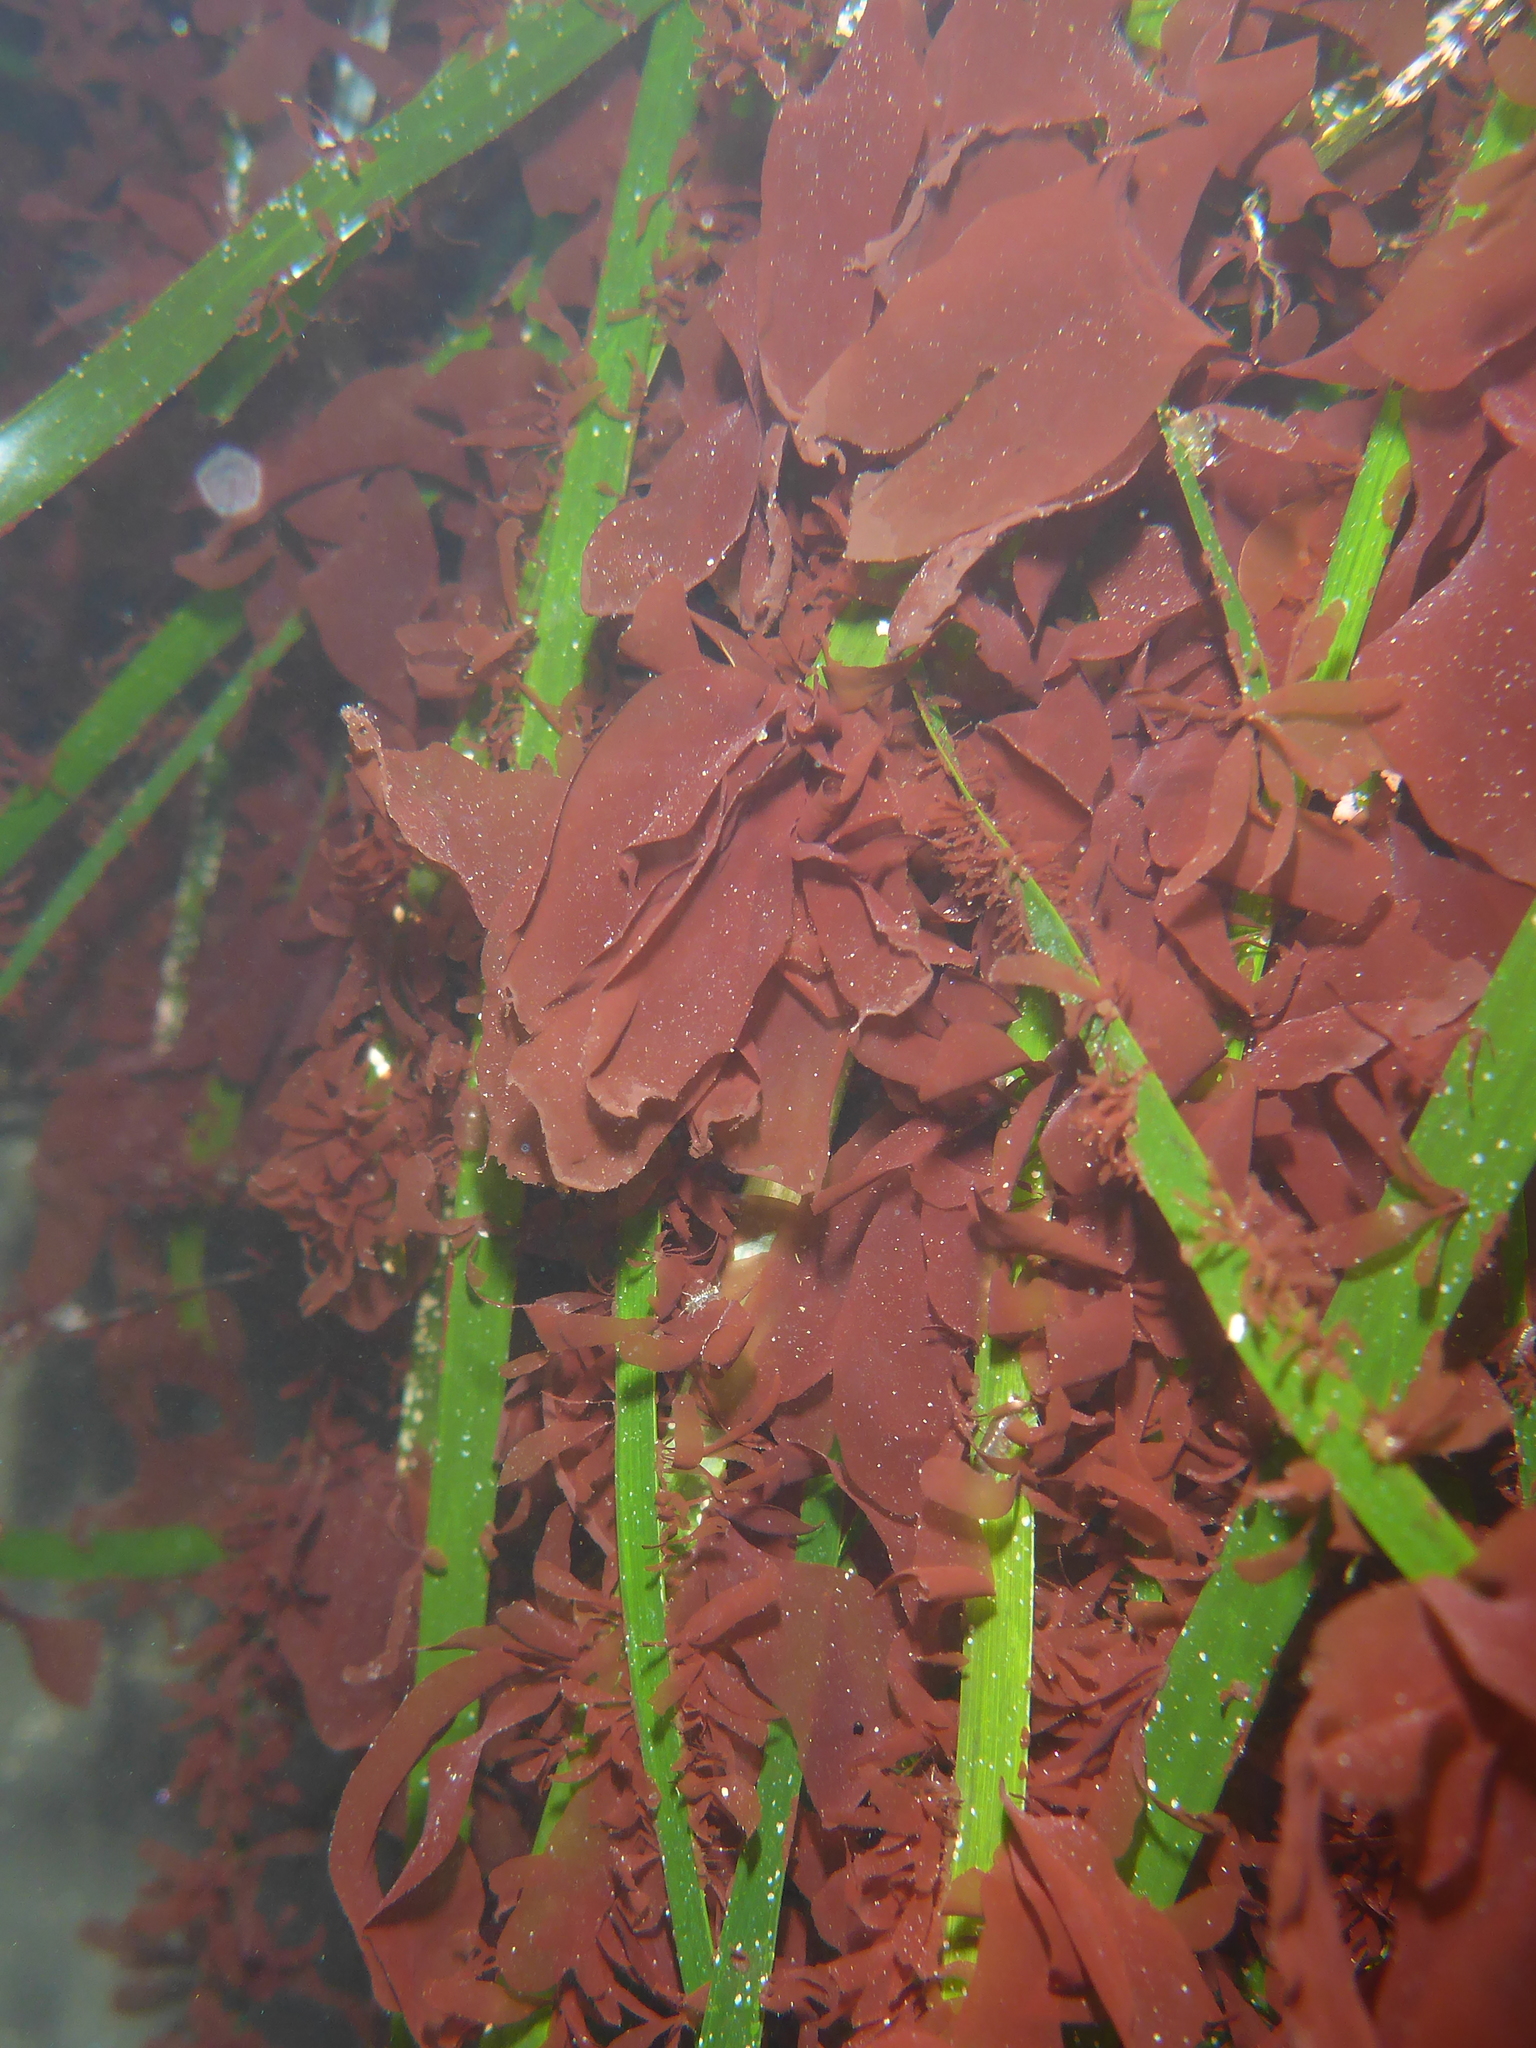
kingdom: Plantae
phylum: Rhodophyta
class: Compsopogonophyceae
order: Erythropeltidales
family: Erythrotrichiaceae
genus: Smithora
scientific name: Smithora naiadum
